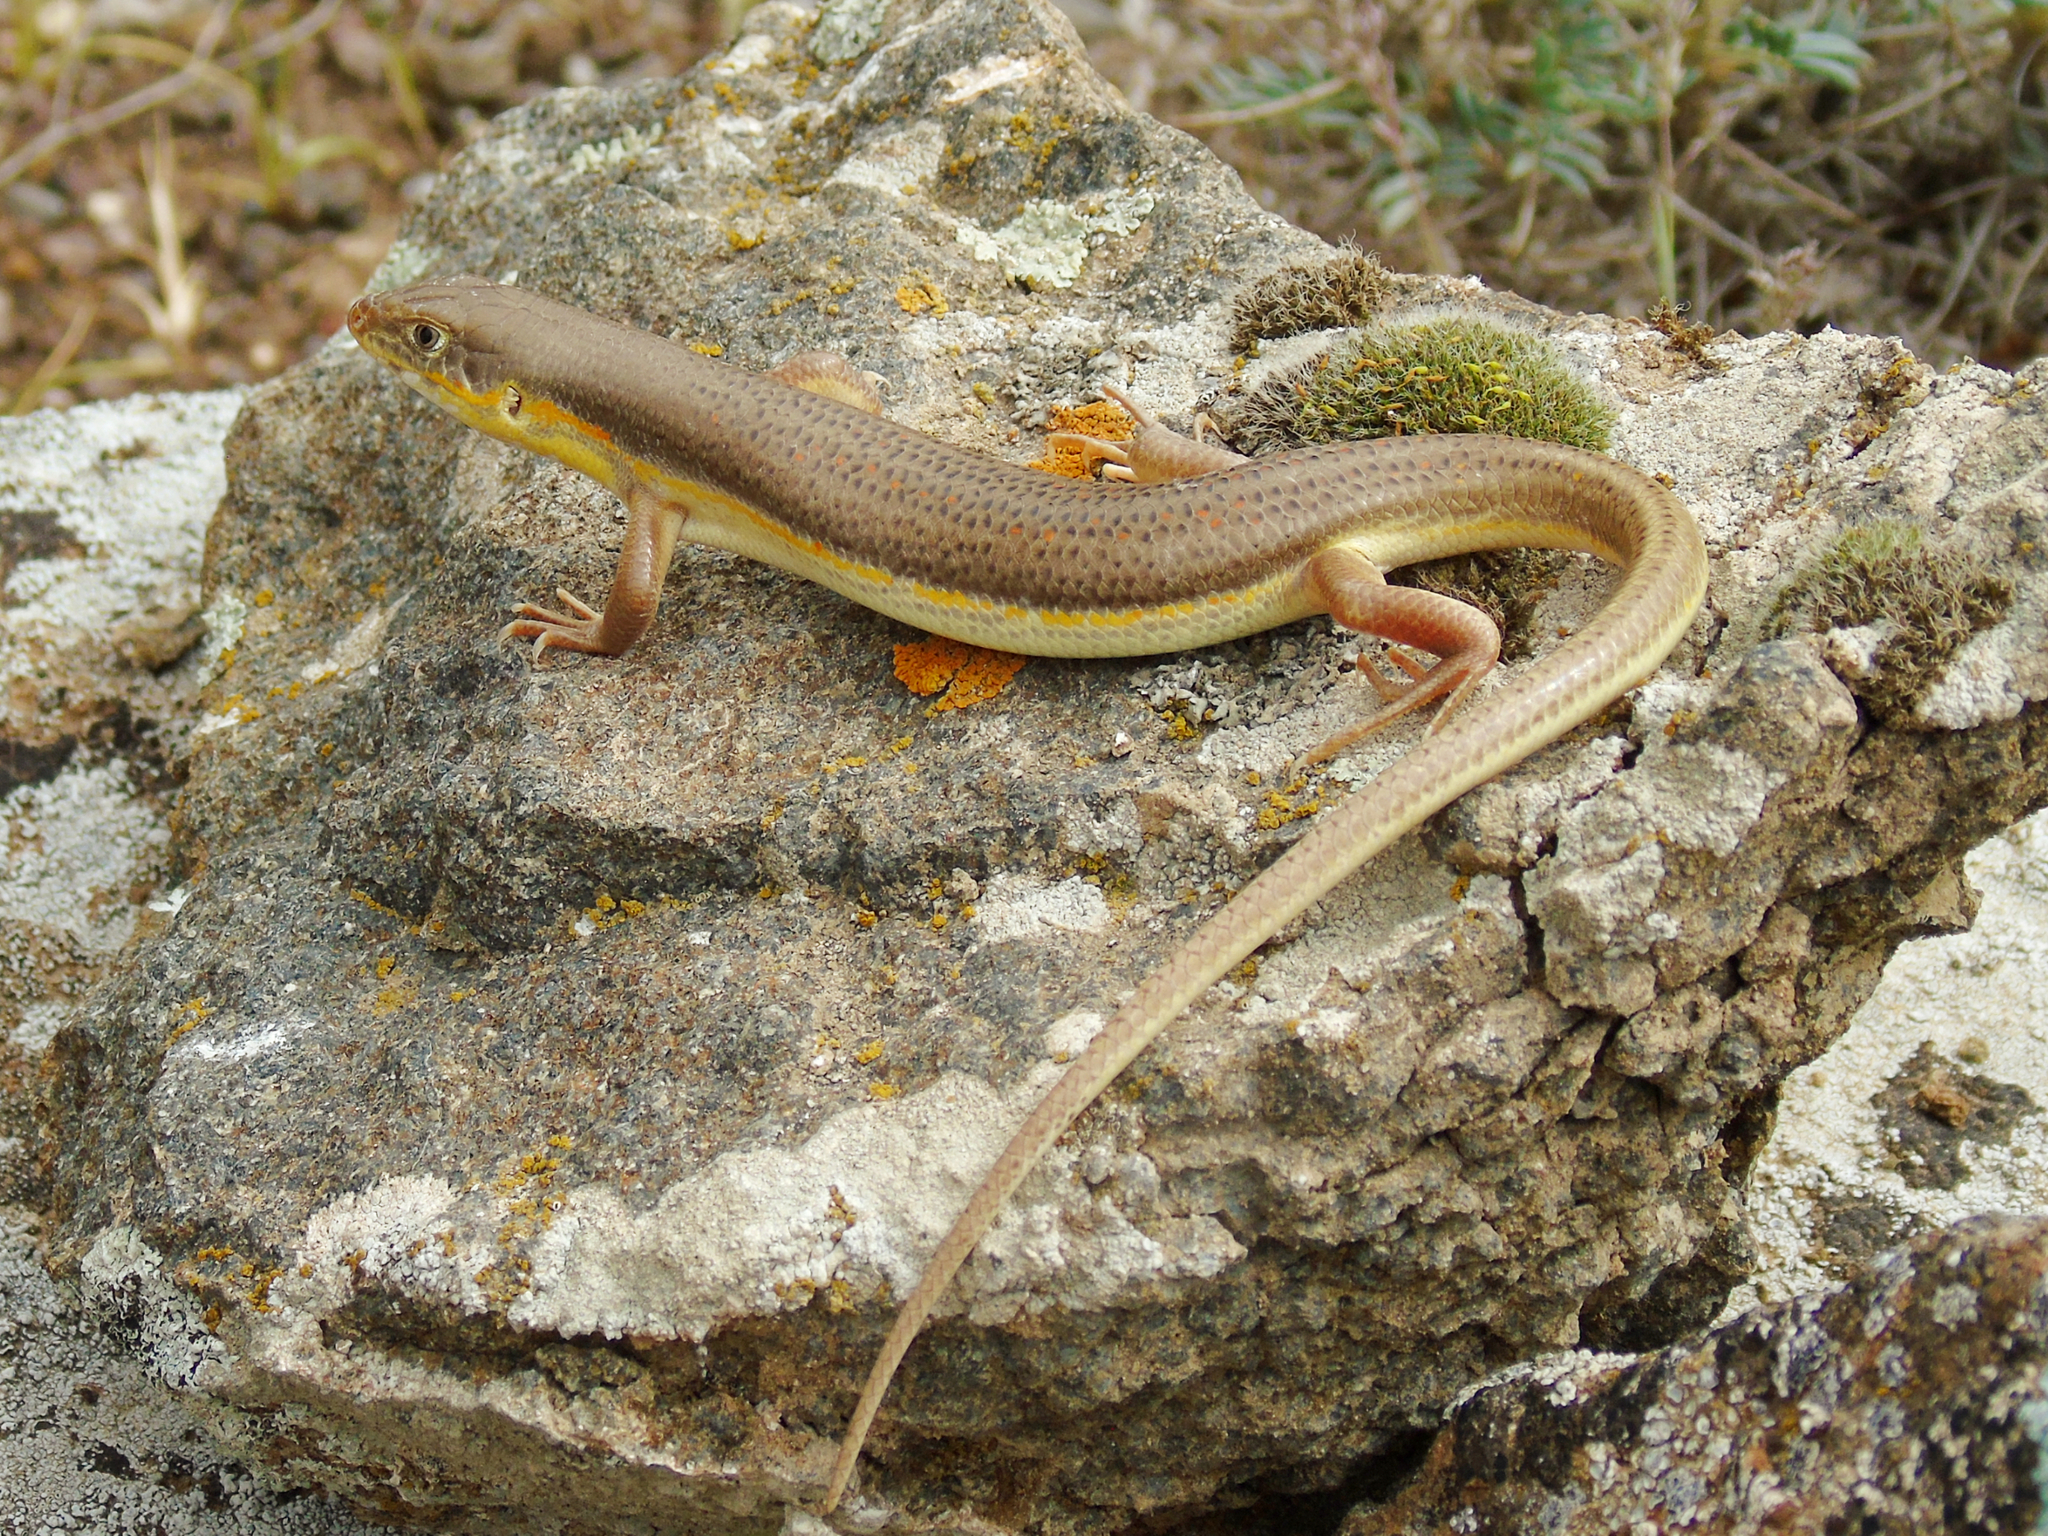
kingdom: Animalia
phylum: Chordata
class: Squamata
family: Scincidae
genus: Eumeces
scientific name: Eumeces schneiderii
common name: Schneider's skink
